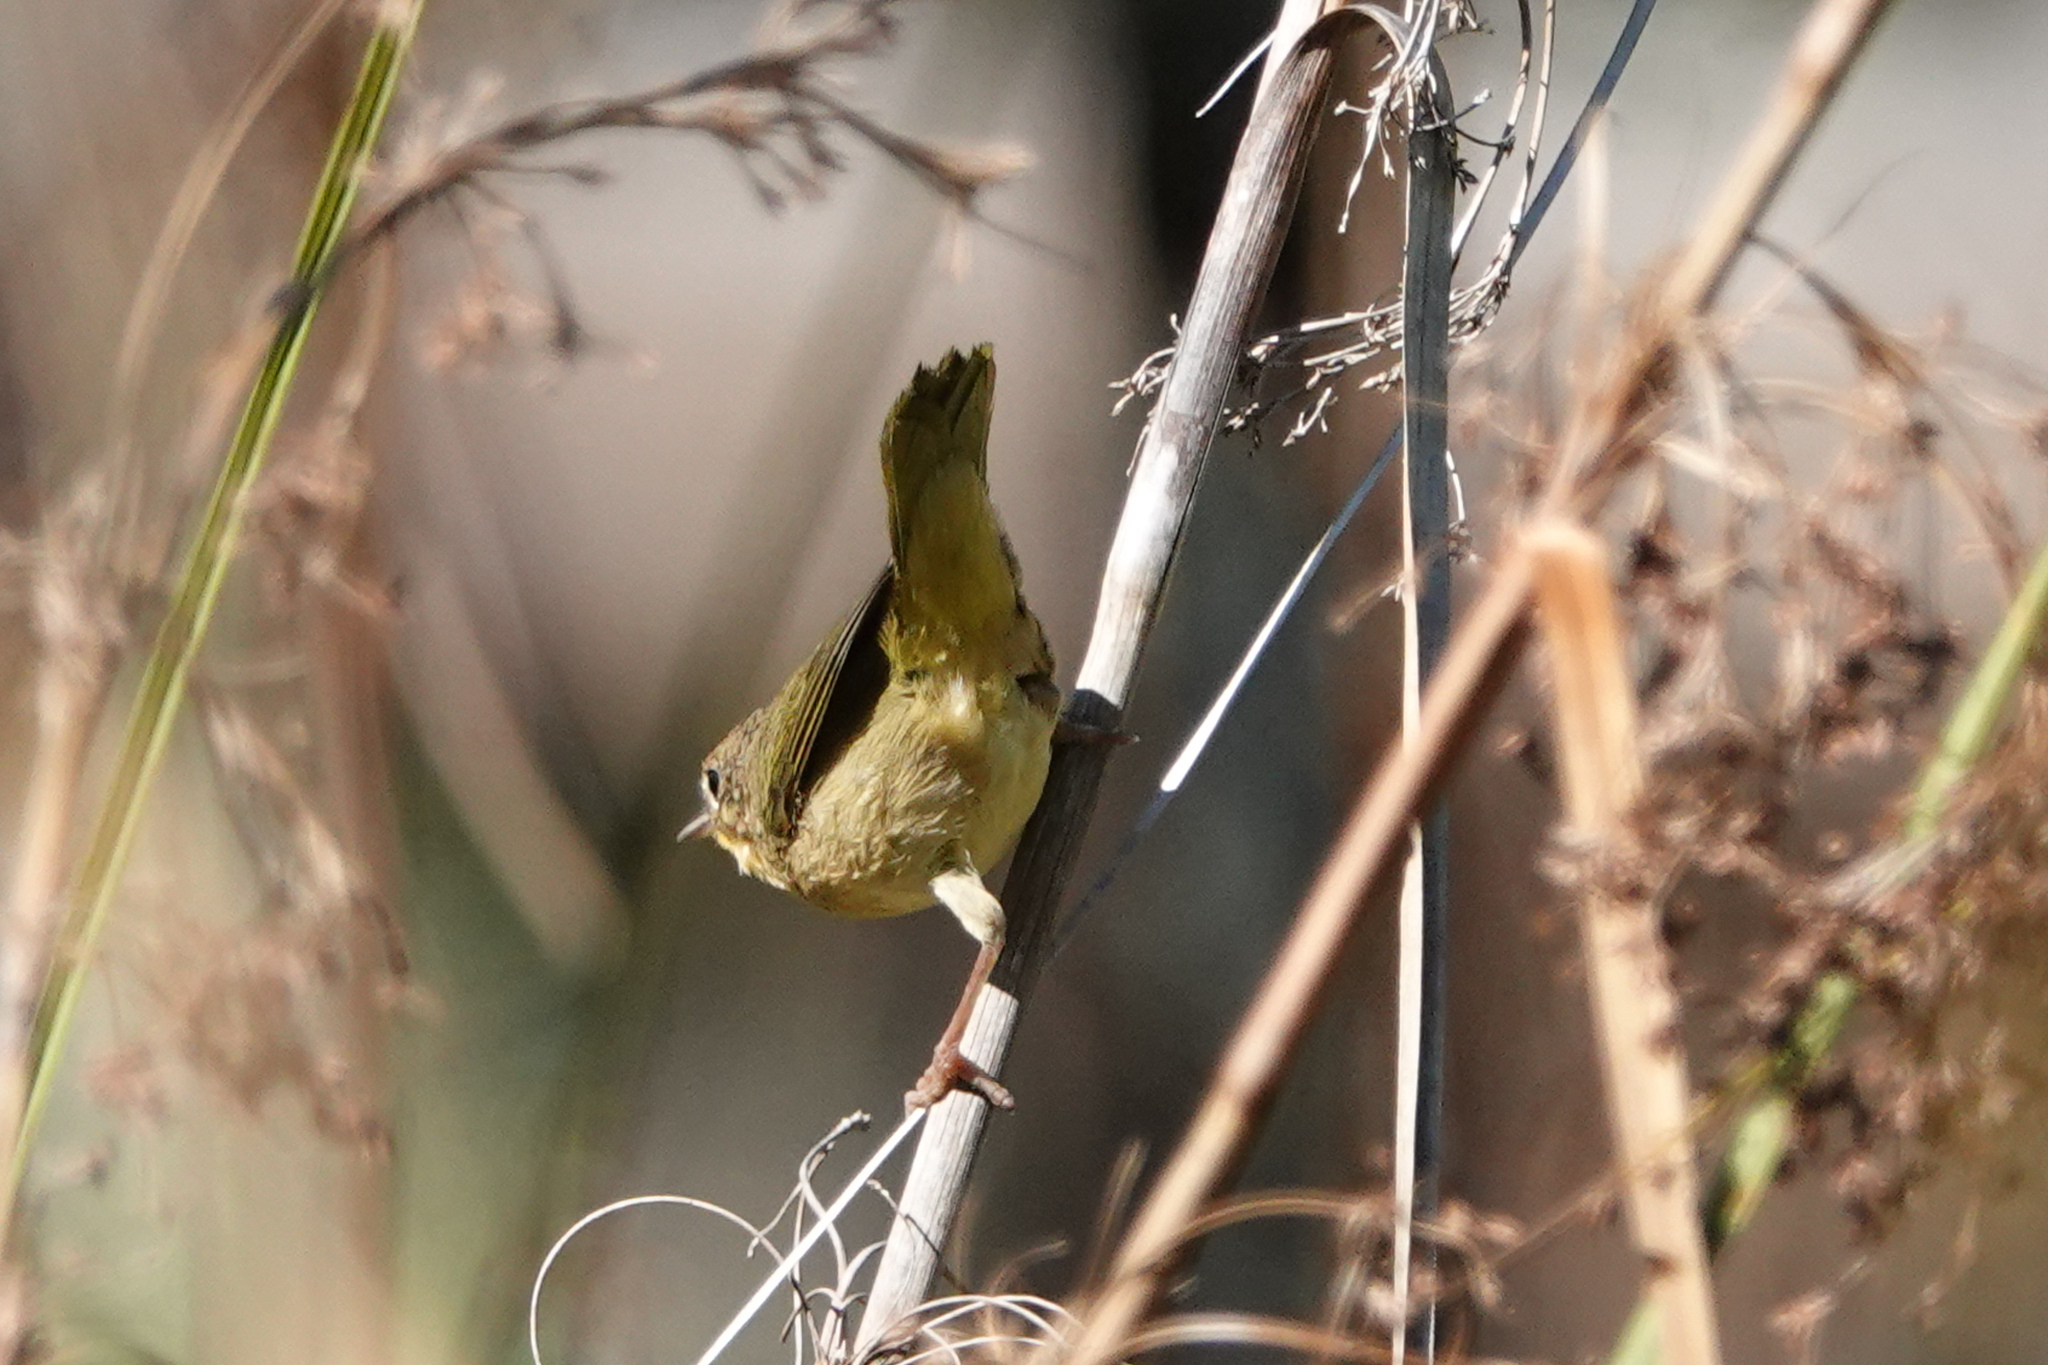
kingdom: Animalia
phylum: Chordata
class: Aves
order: Passeriformes
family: Parulidae
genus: Geothlypis
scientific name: Geothlypis trichas
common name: Common yellowthroat
